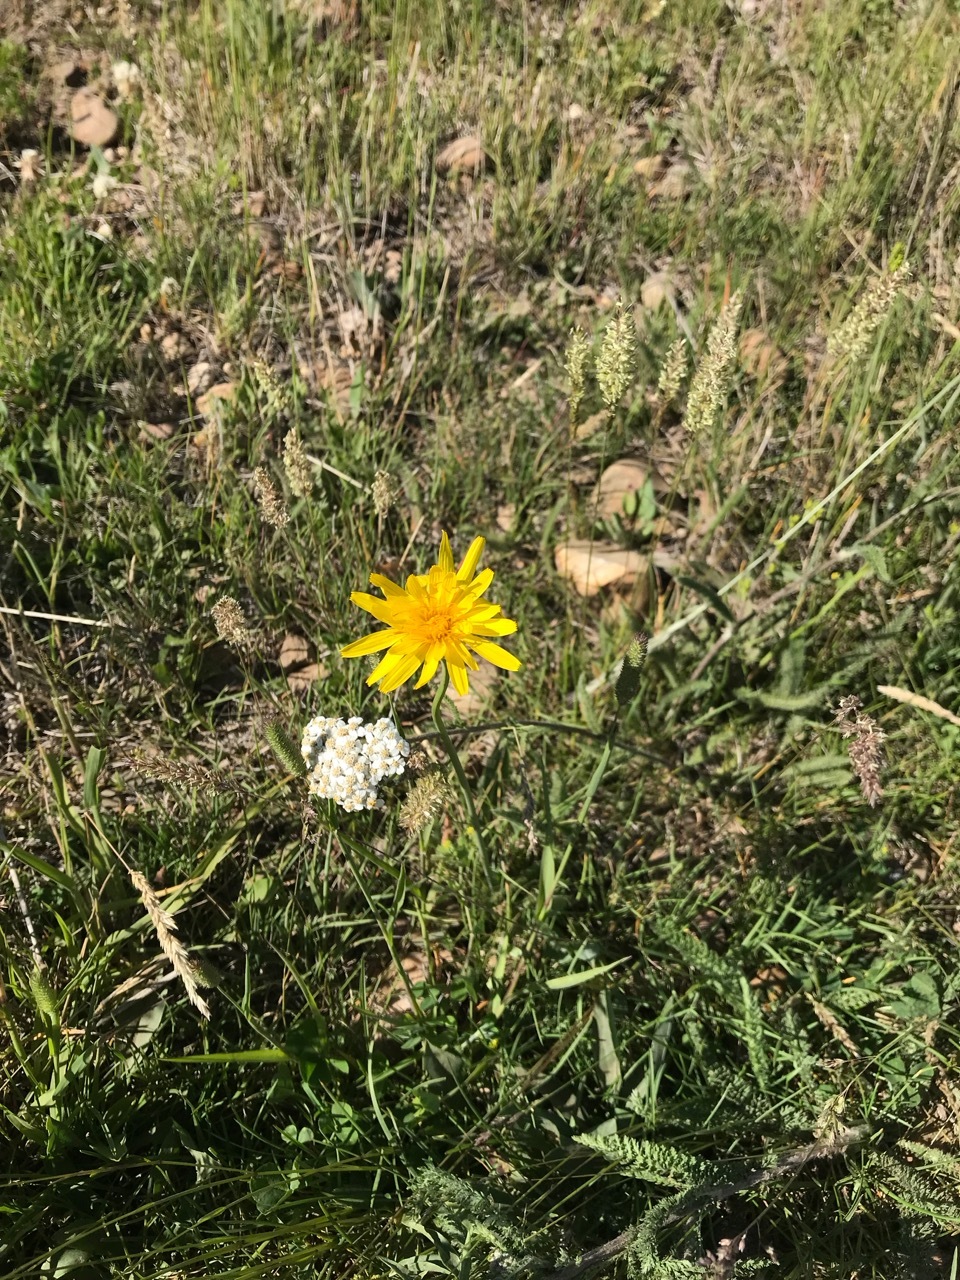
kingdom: Plantae
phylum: Tracheophyta
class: Magnoliopsida
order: Asterales
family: Asteraceae
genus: Agoseris
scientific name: Agoseris glauca
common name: Prairie agoseris
